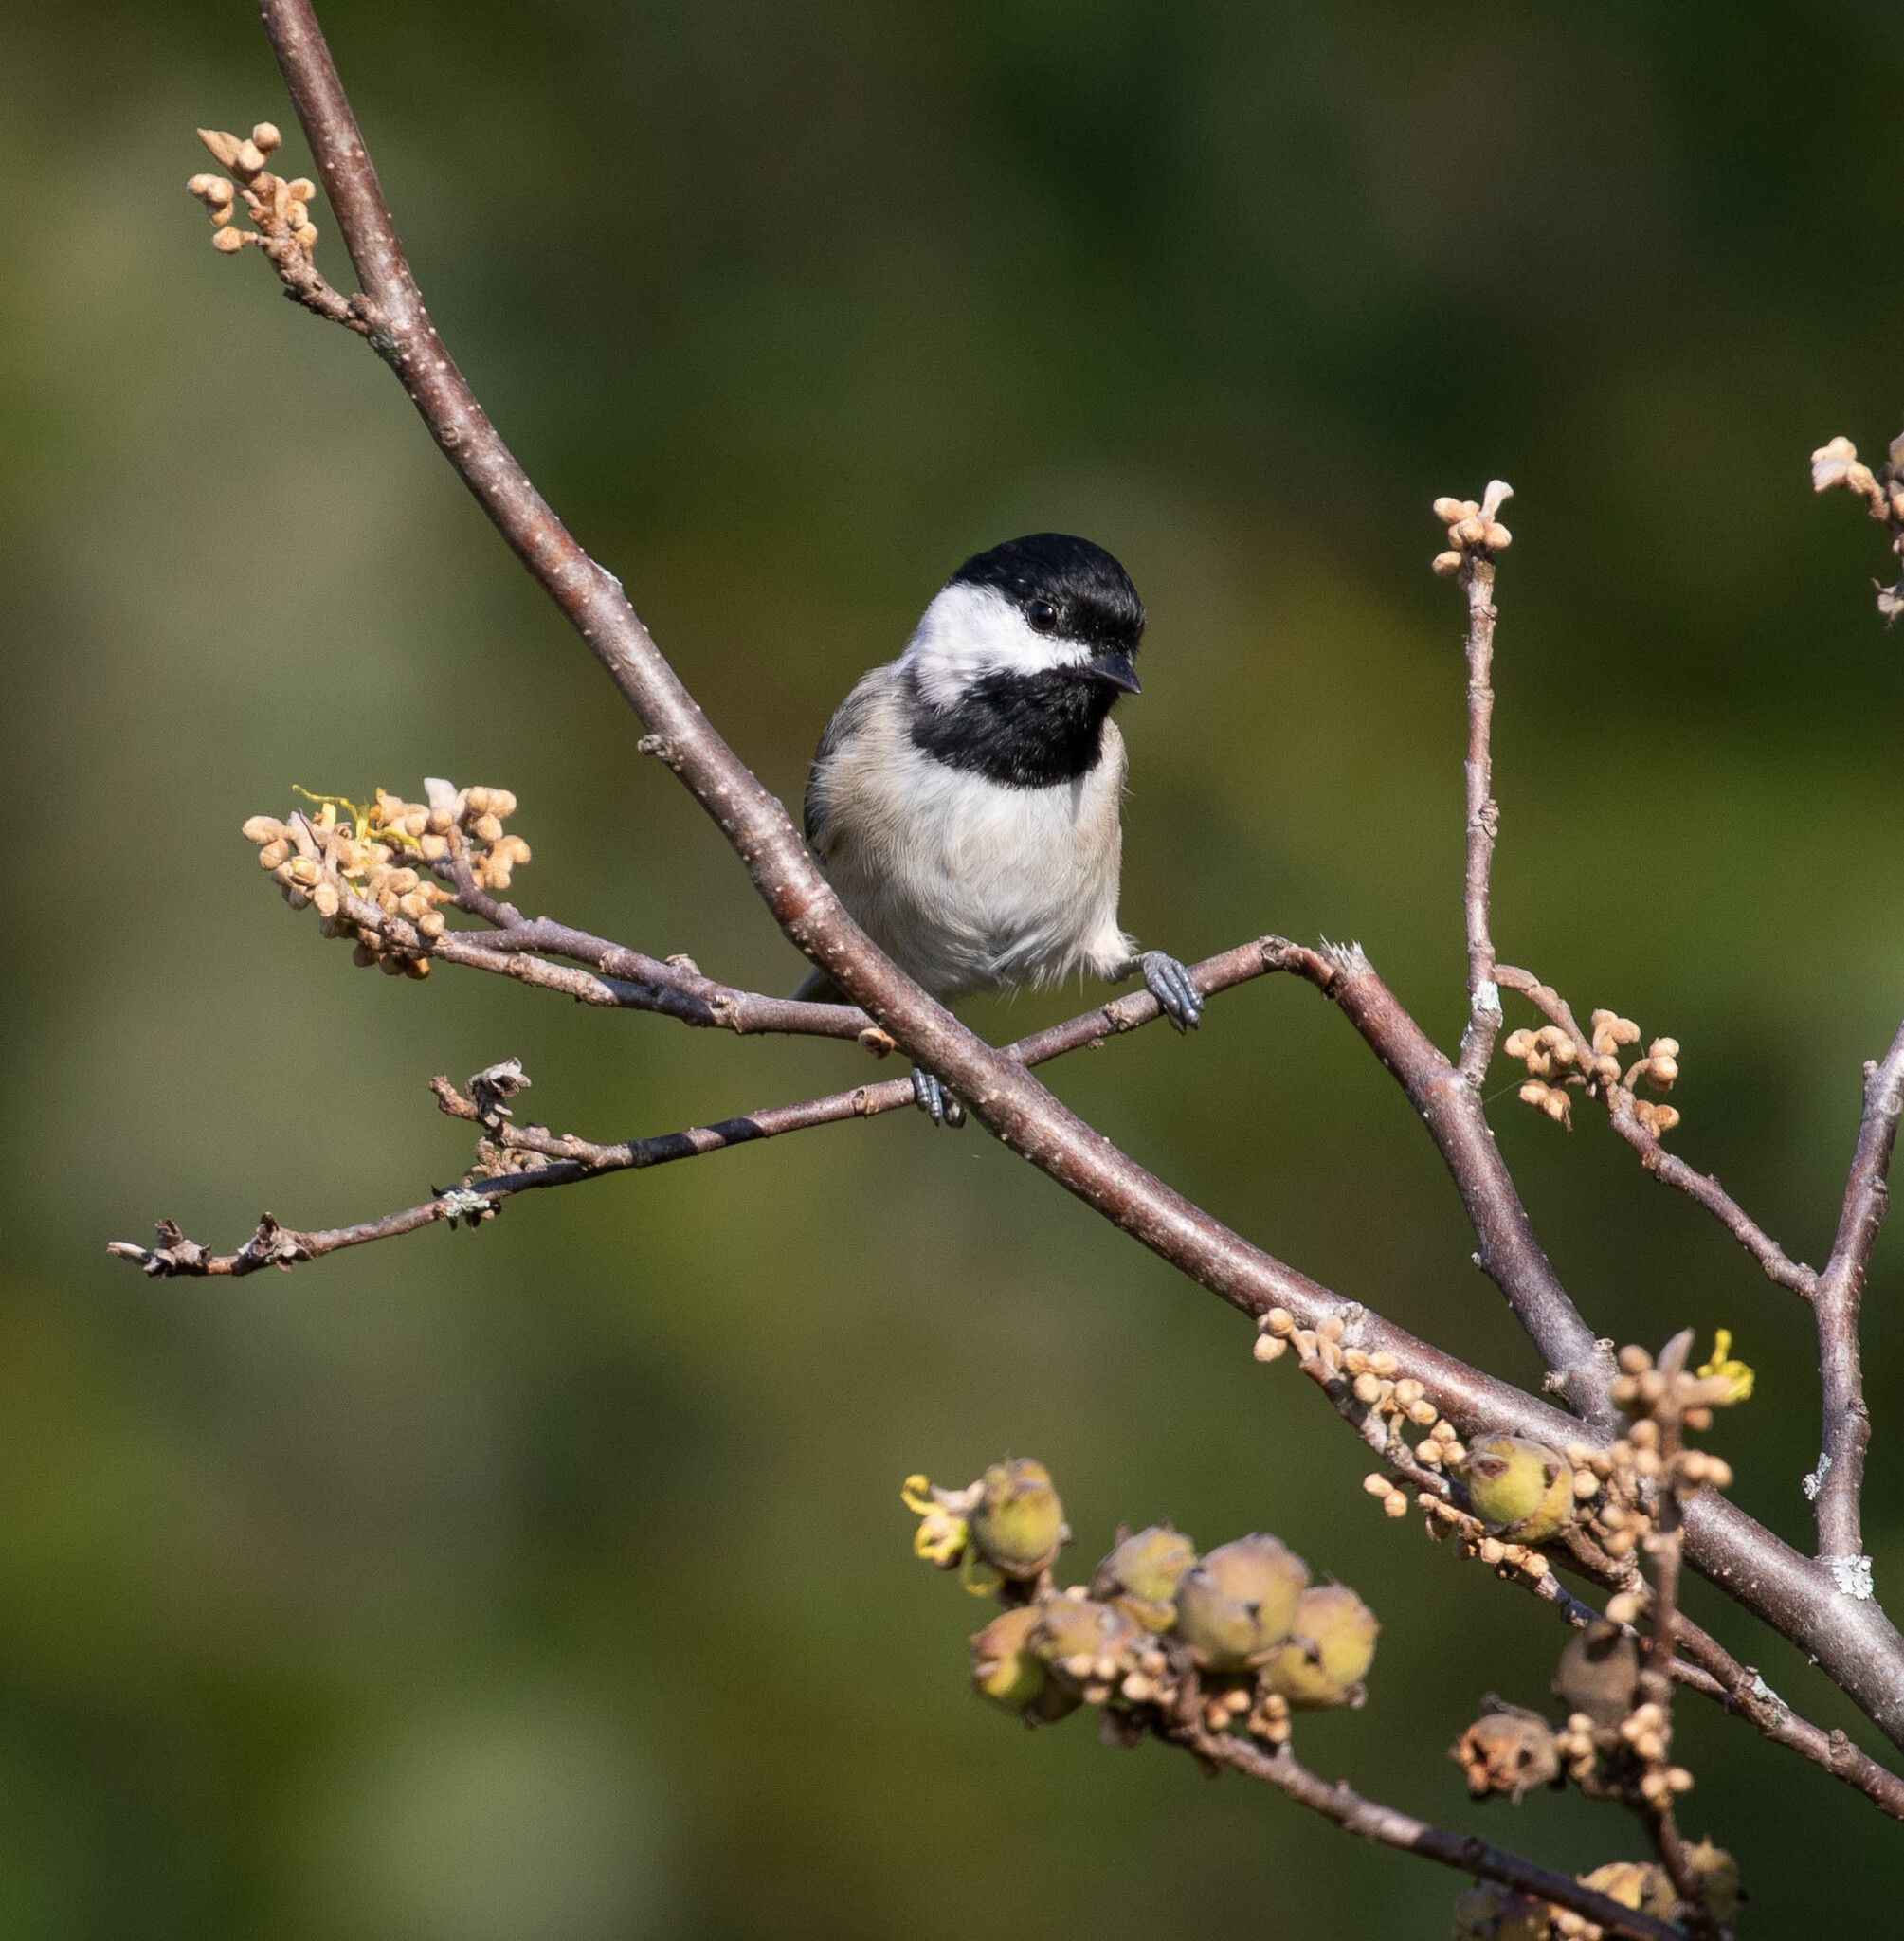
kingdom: Animalia
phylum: Chordata
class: Aves
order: Passeriformes
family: Paridae
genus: Poecile
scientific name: Poecile carolinensis
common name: Carolina chickadee
